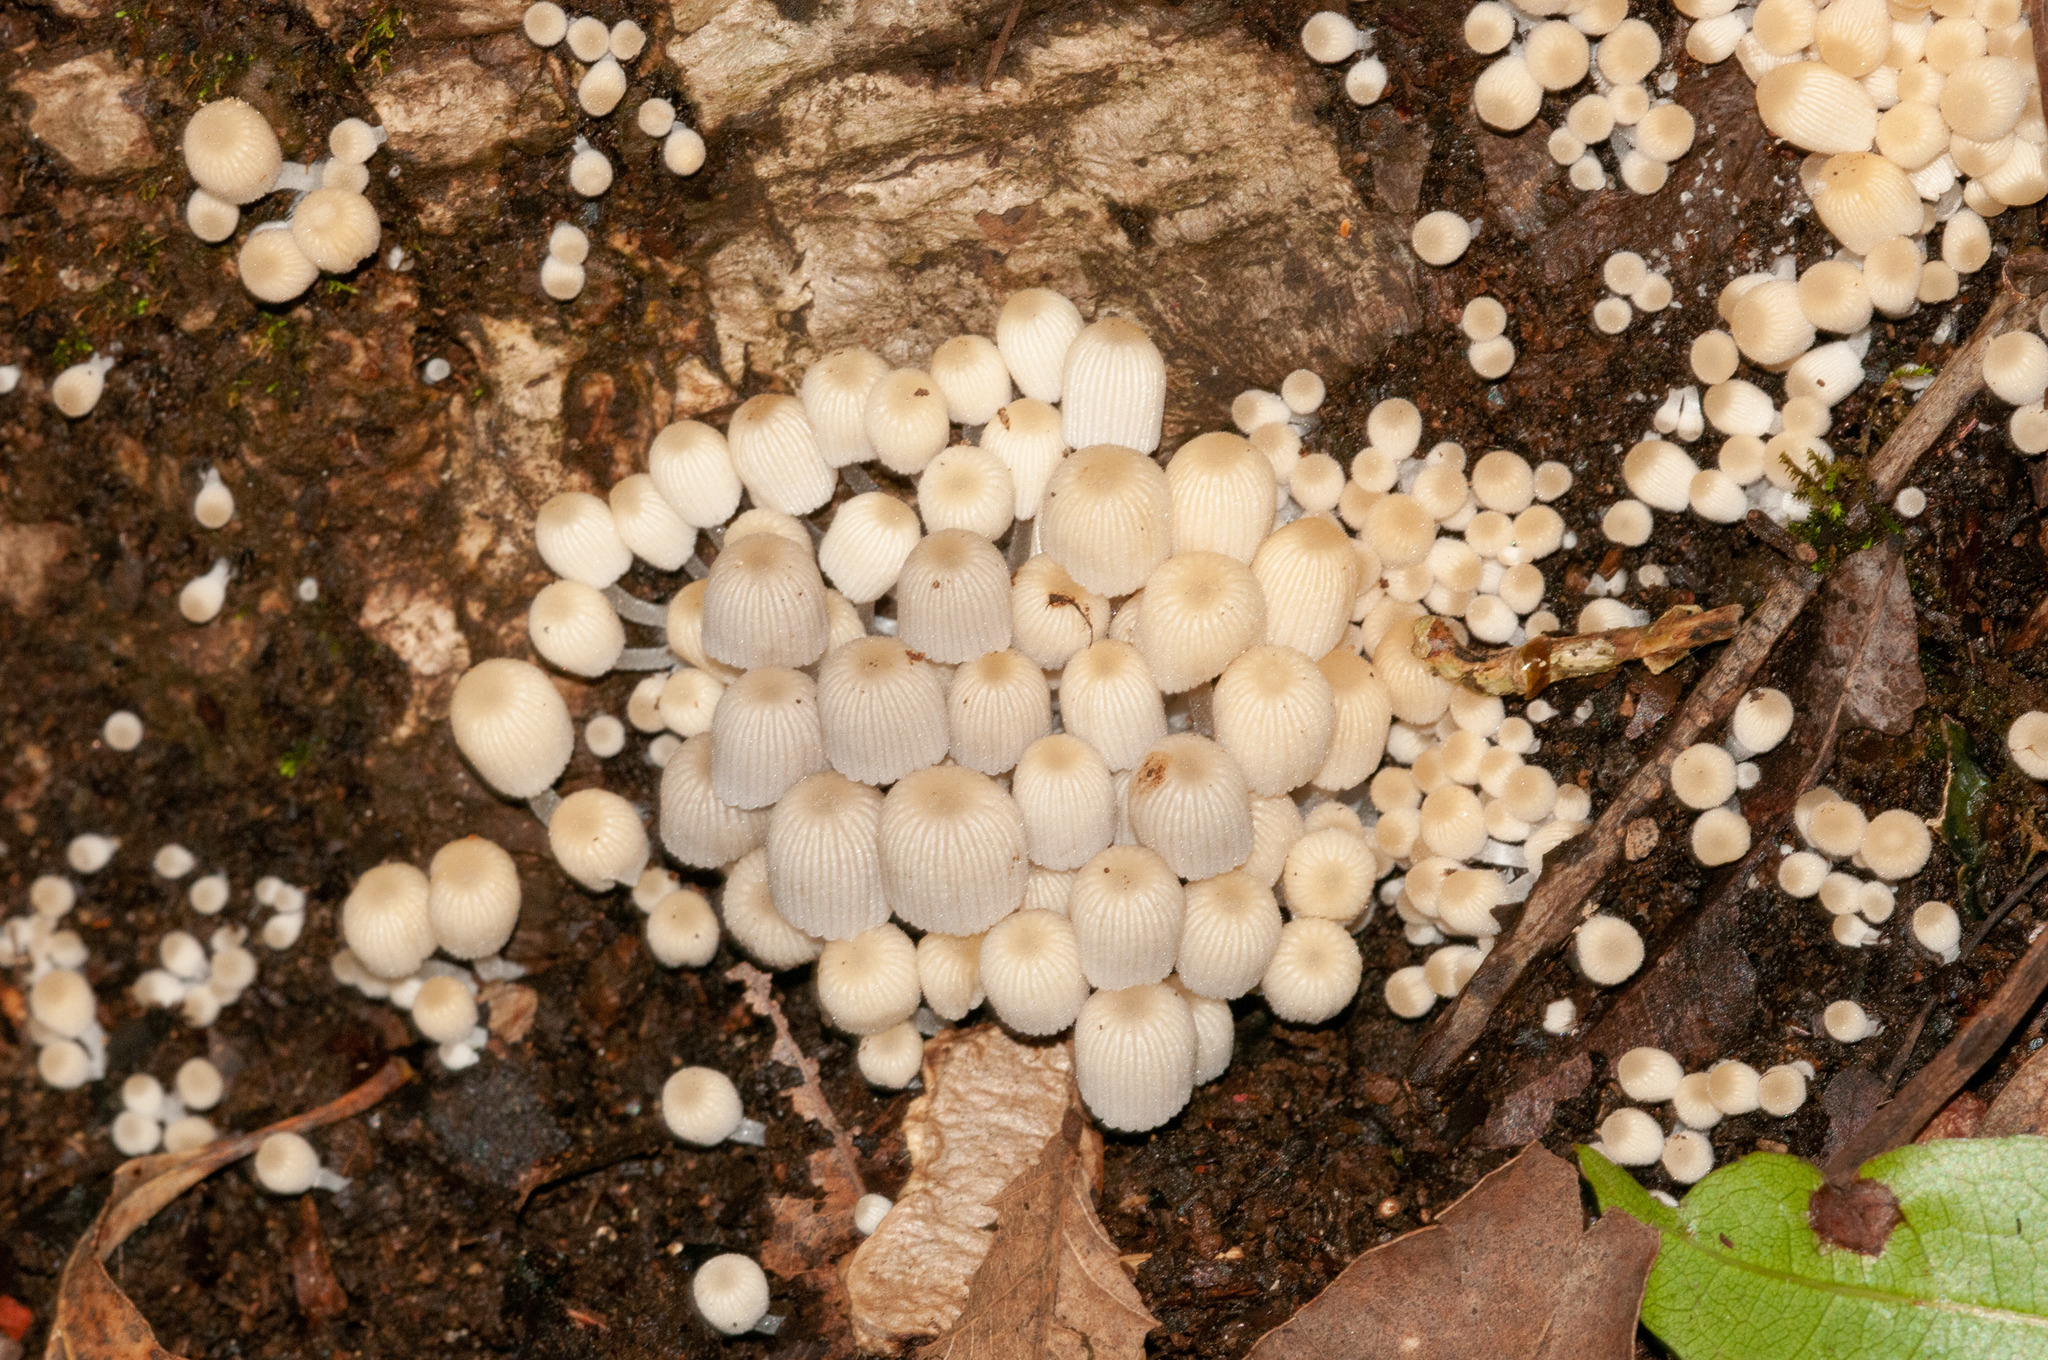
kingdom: Fungi
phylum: Basidiomycota
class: Agaricomycetes
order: Agaricales
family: Psathyrellaceae
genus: Coprinellus
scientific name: Coprinellus disseminatus
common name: Fairies' bonnets
